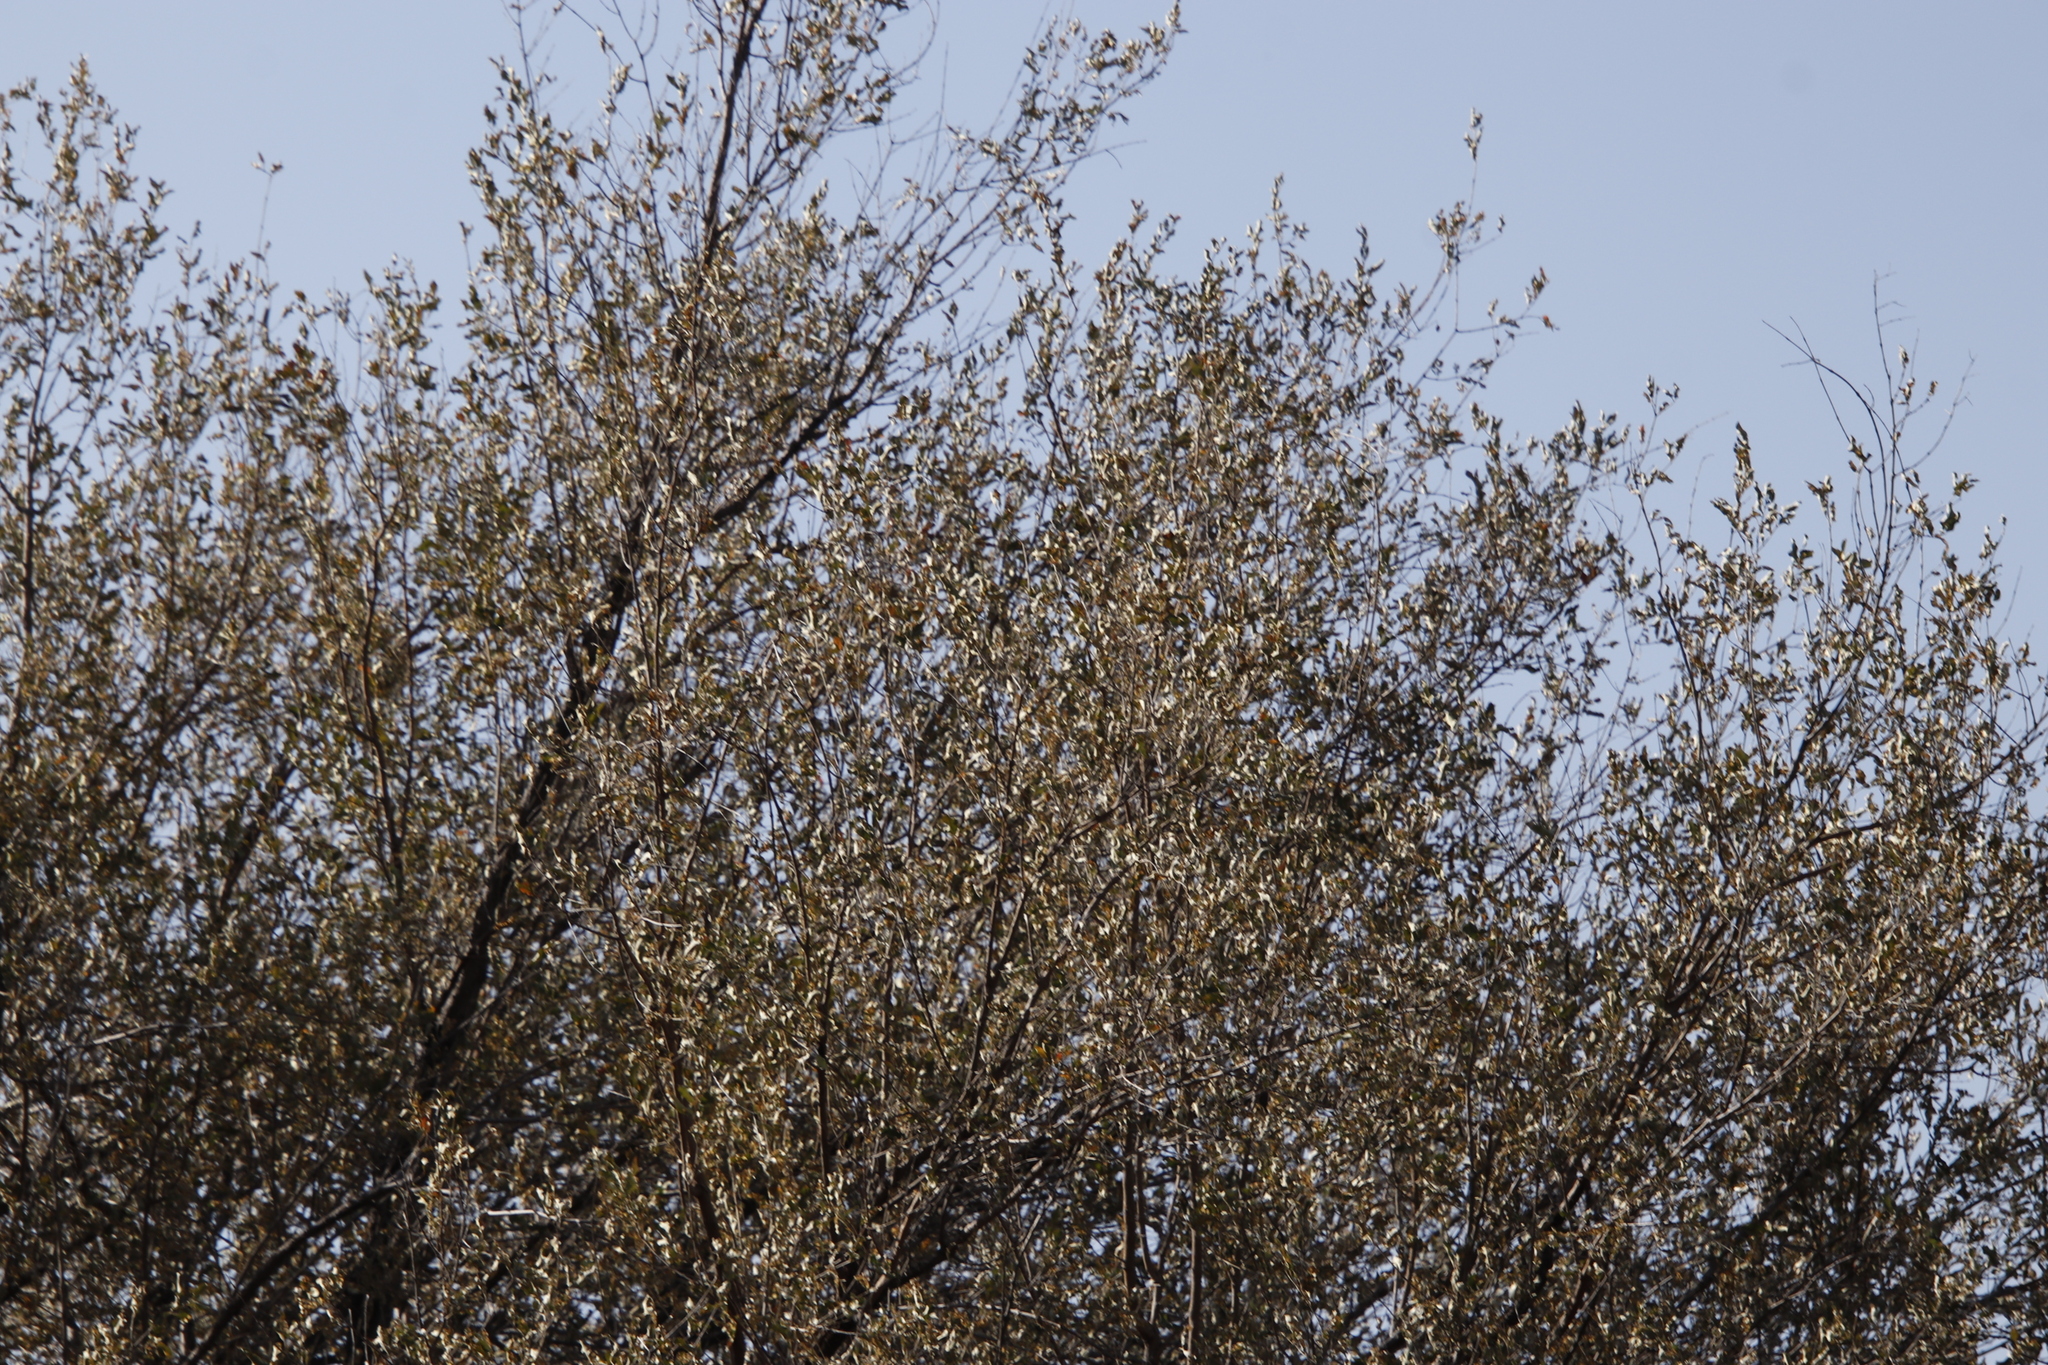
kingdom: Plantae
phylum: Tracheophyta
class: Magnoliopsida
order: Myrtales
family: Combretaceae
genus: Combretum
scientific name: Combretum imberbe
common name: Leadwood
